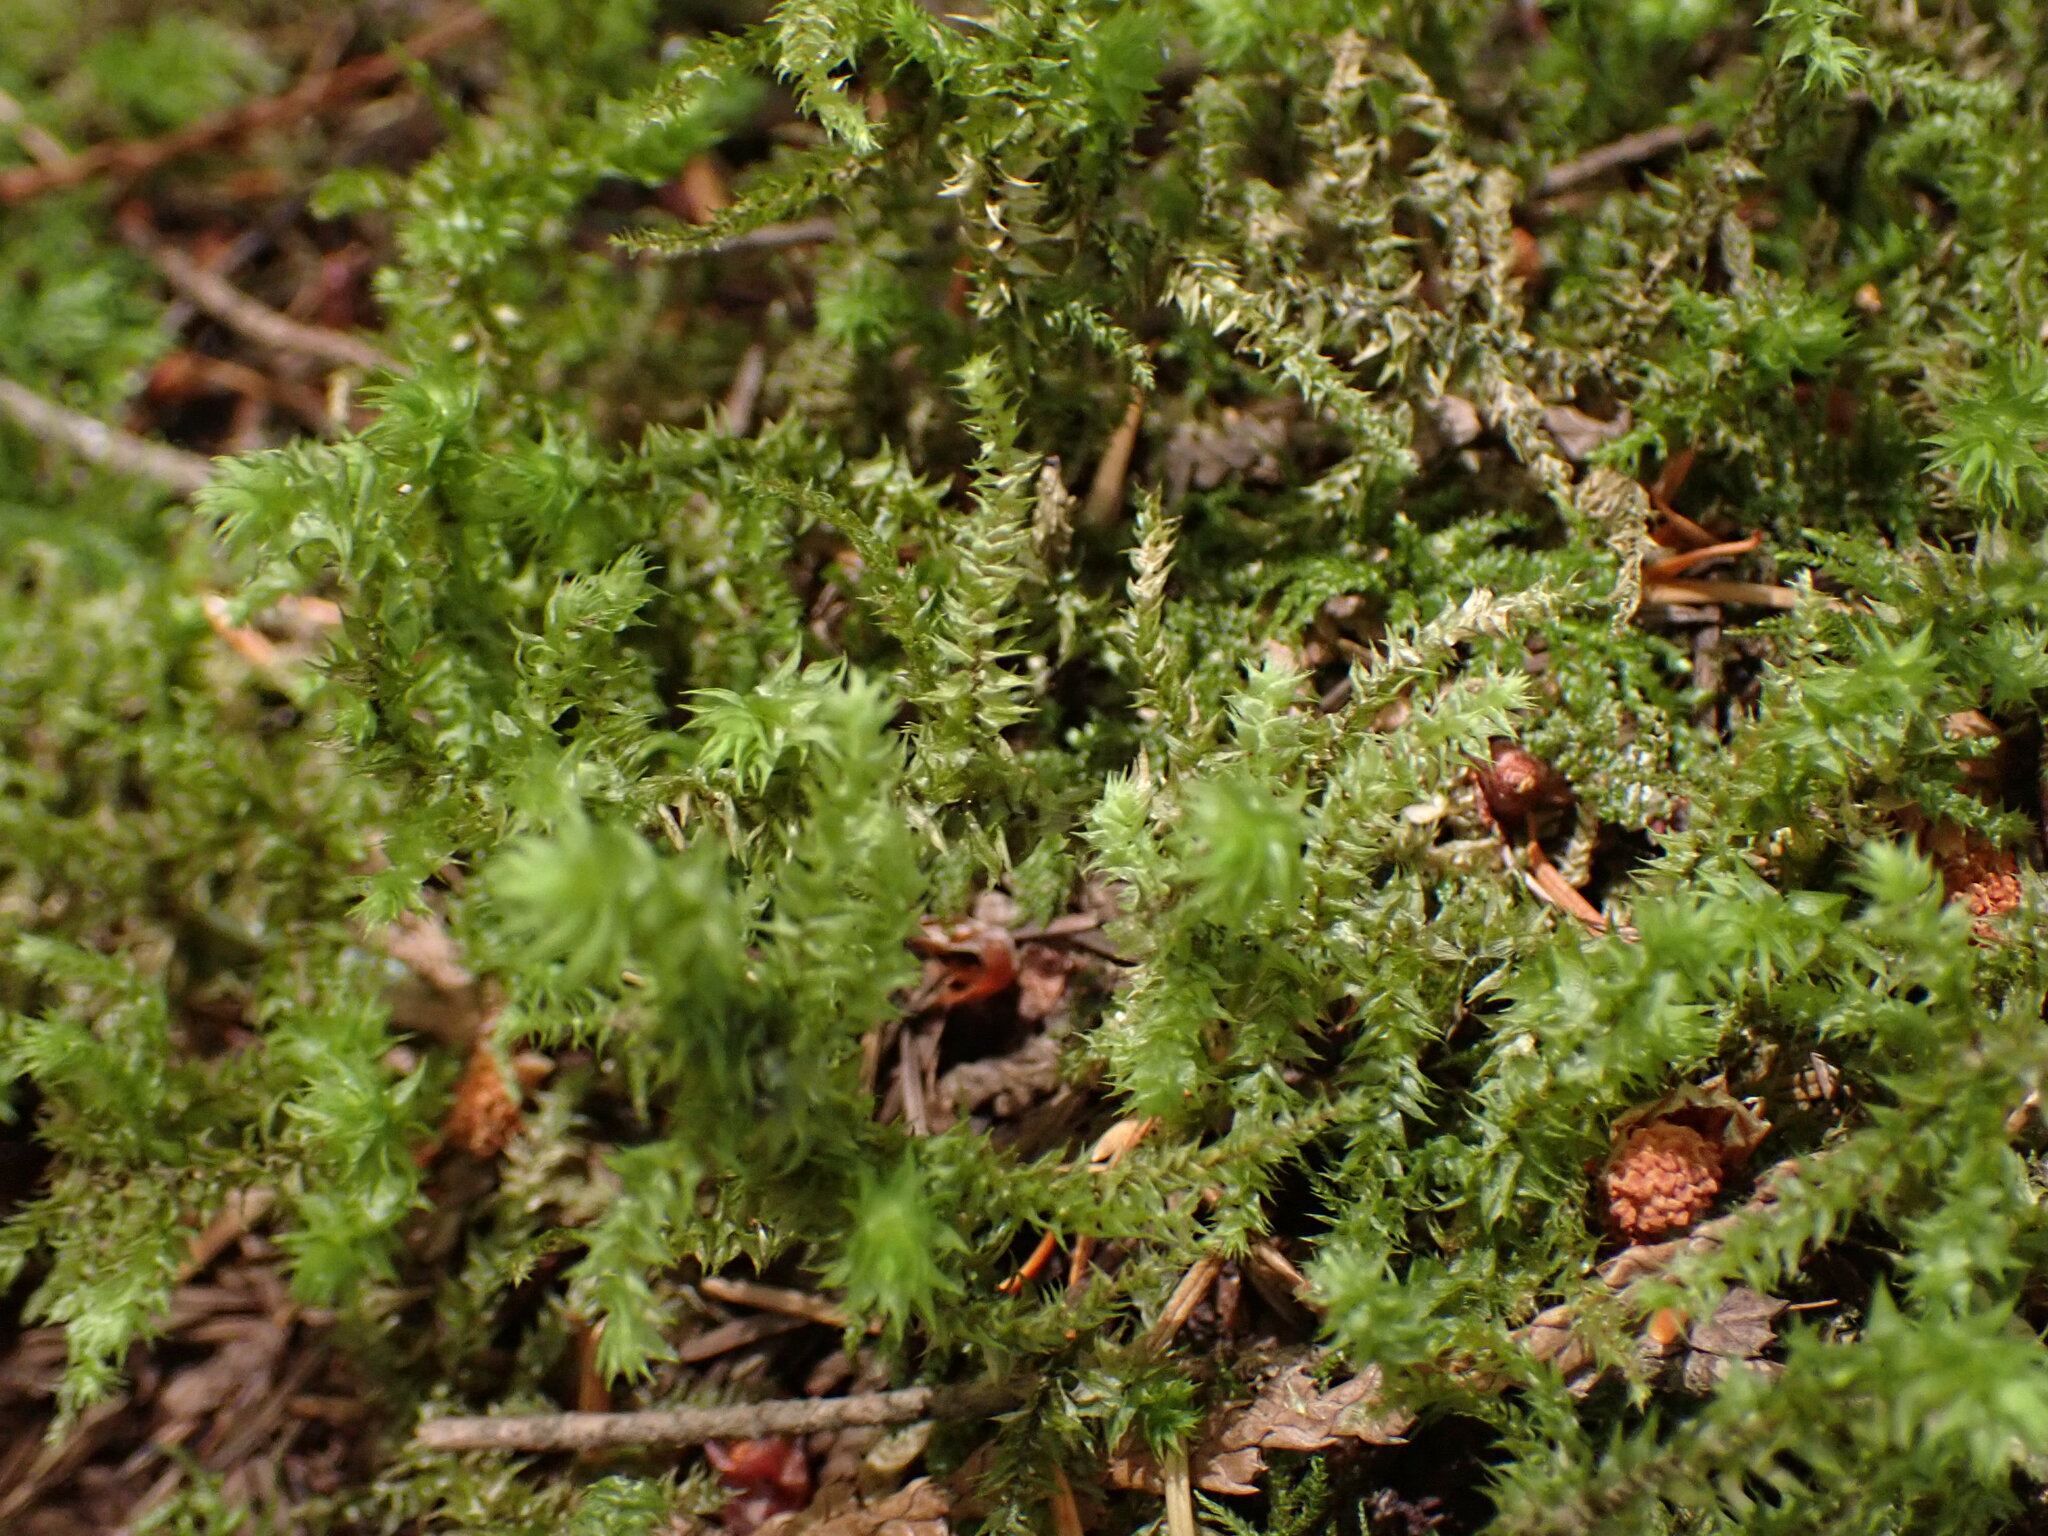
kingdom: Plantae
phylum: Bryophyta
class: Bryopsida
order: Hypnales
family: Hylocomiaceae
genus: Hylocomiadelphus
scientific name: Hylocomiadelphus triquetrus
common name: Rough goose neck moss
